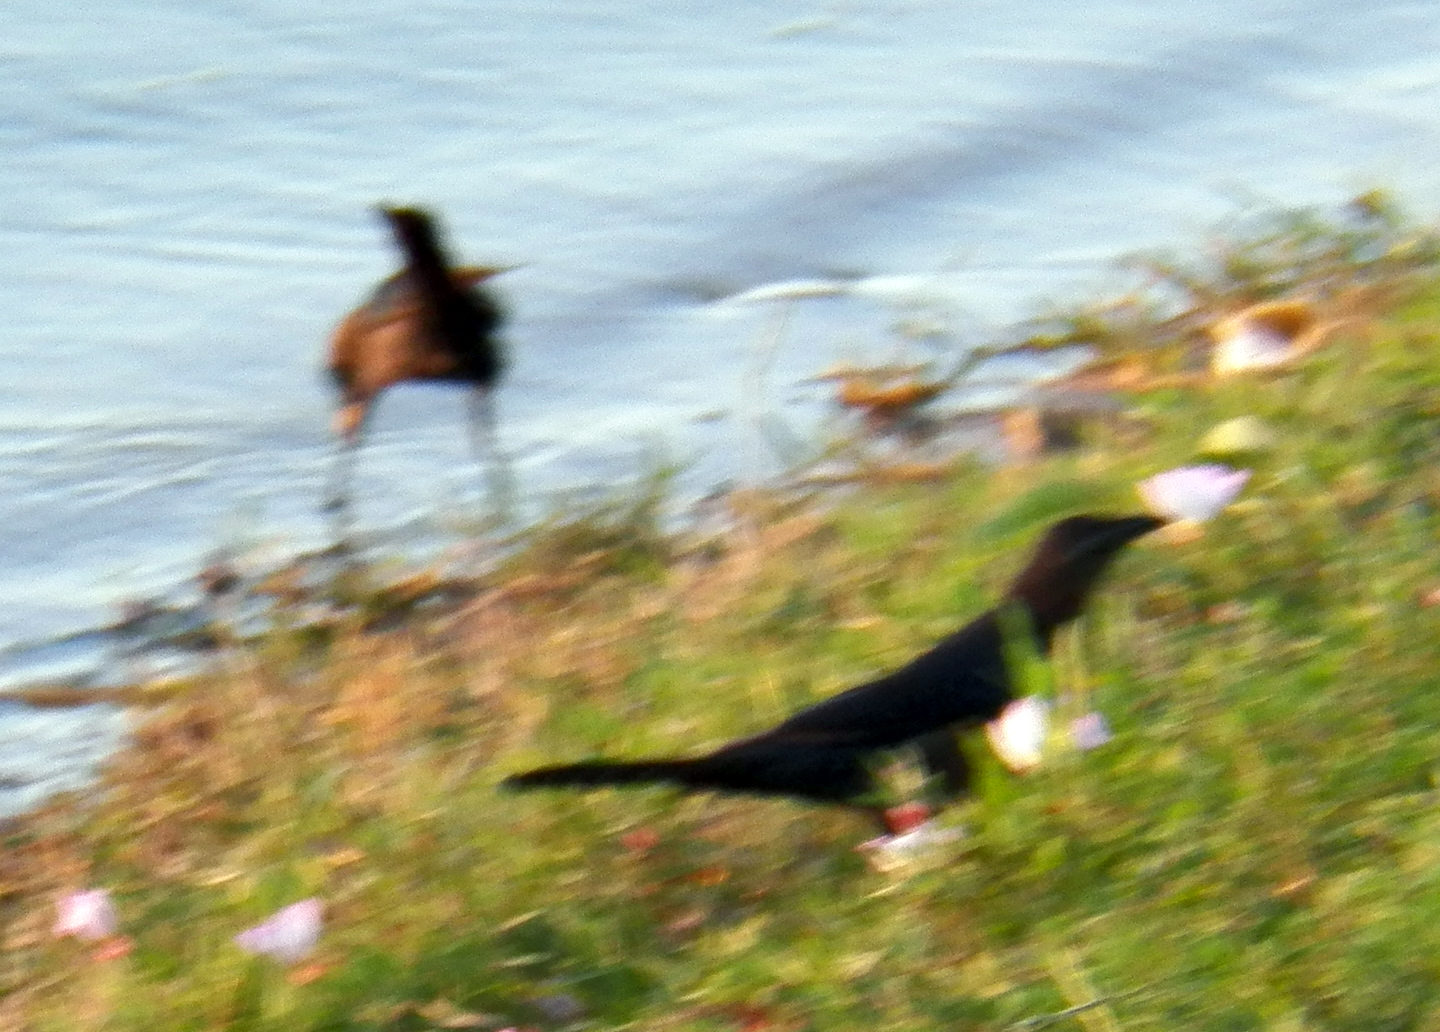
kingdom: Animalia
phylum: Chordata
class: Aves
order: Passeriformes
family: Icteridae
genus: Quiscalus
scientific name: Quiscalus mexicanus
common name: Great-tailed grackle
